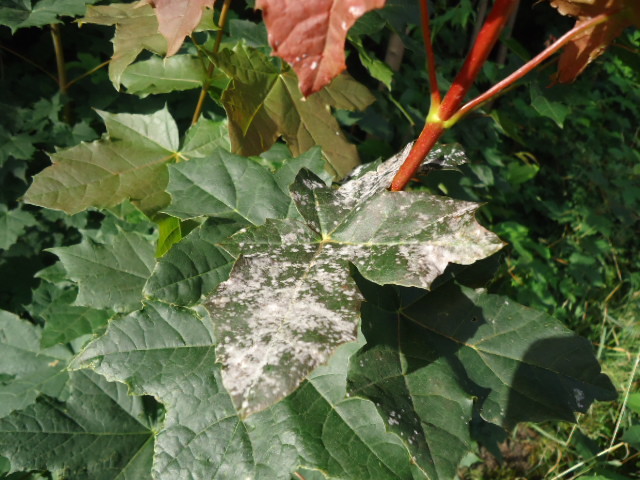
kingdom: Fungi
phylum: Ascomycota
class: Leotiomycetes
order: Helotiales
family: Erysiphaceae
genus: Sawadaea
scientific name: Sawadaea tulasnei
